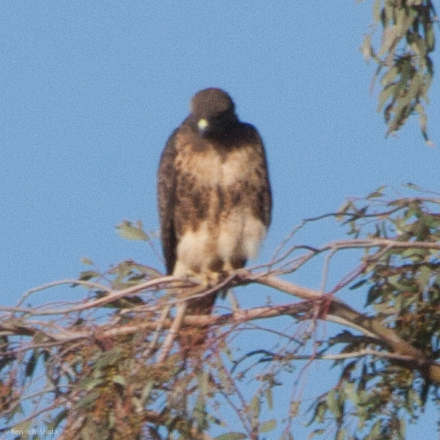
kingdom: Animalia
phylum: Chordata
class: Aves
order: Accipitriformes
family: Accipitridae
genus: Buteo
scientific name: Buteo jamaicensis
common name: Red-tailed hawk
